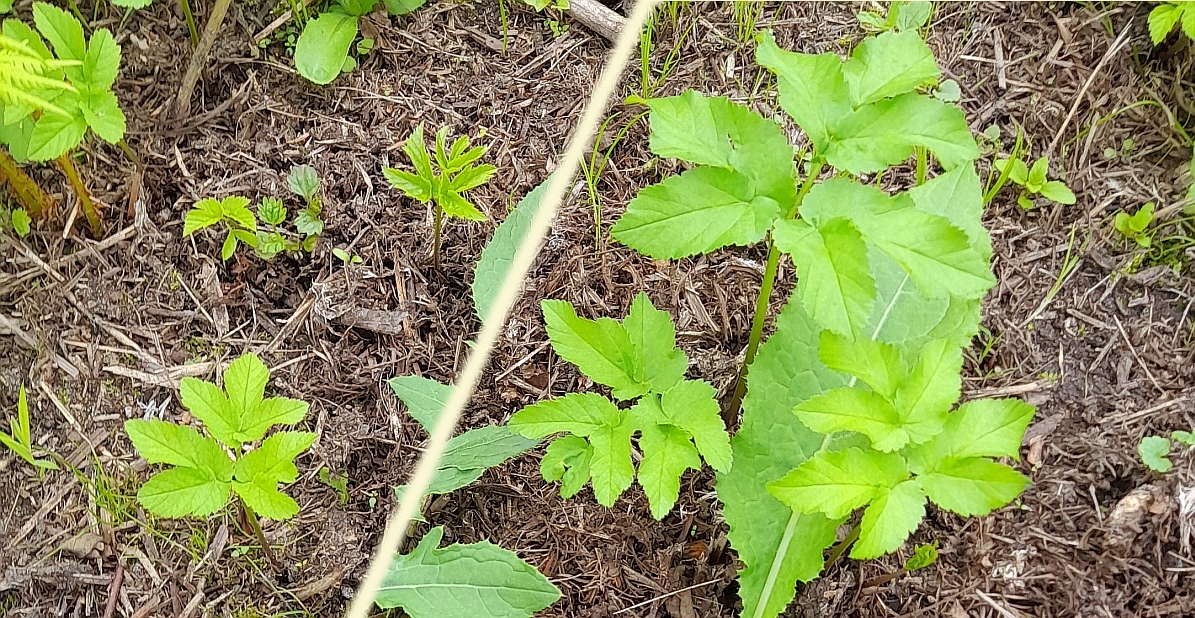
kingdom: Plantae
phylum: Tracheophyta
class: Magnoliopsida
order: Apiales
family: Apiaceae
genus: Aegopodium
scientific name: Aegopodium podagraria
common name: Ground-elder
